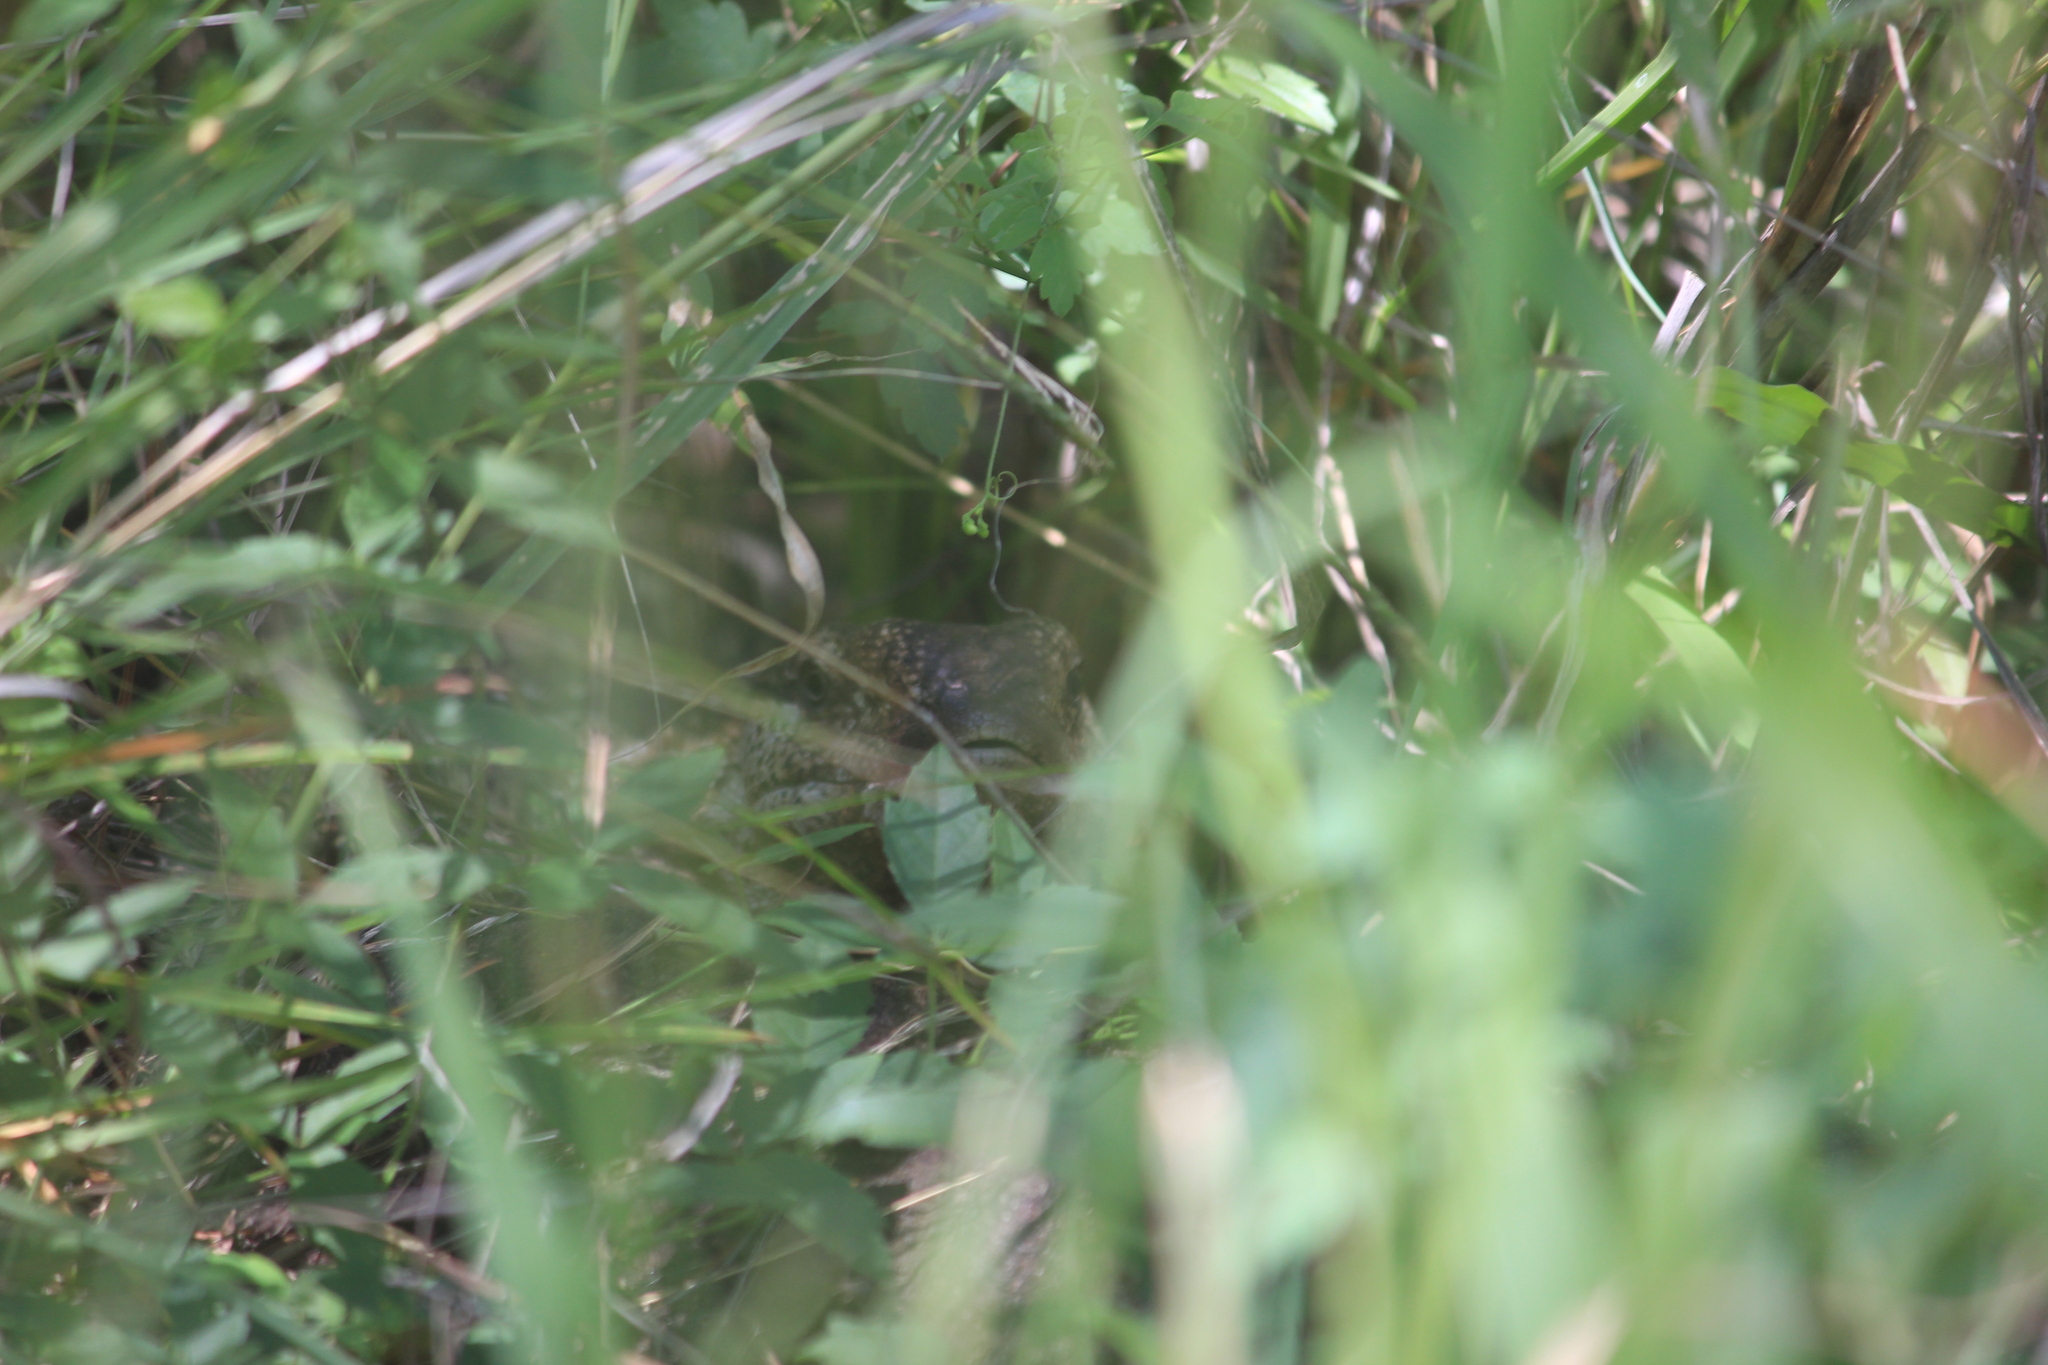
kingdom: Animalia
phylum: Chordata
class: Squamata
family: Varanidae
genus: Varanus
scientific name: Varanus albigularis
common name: White-throated monitor
